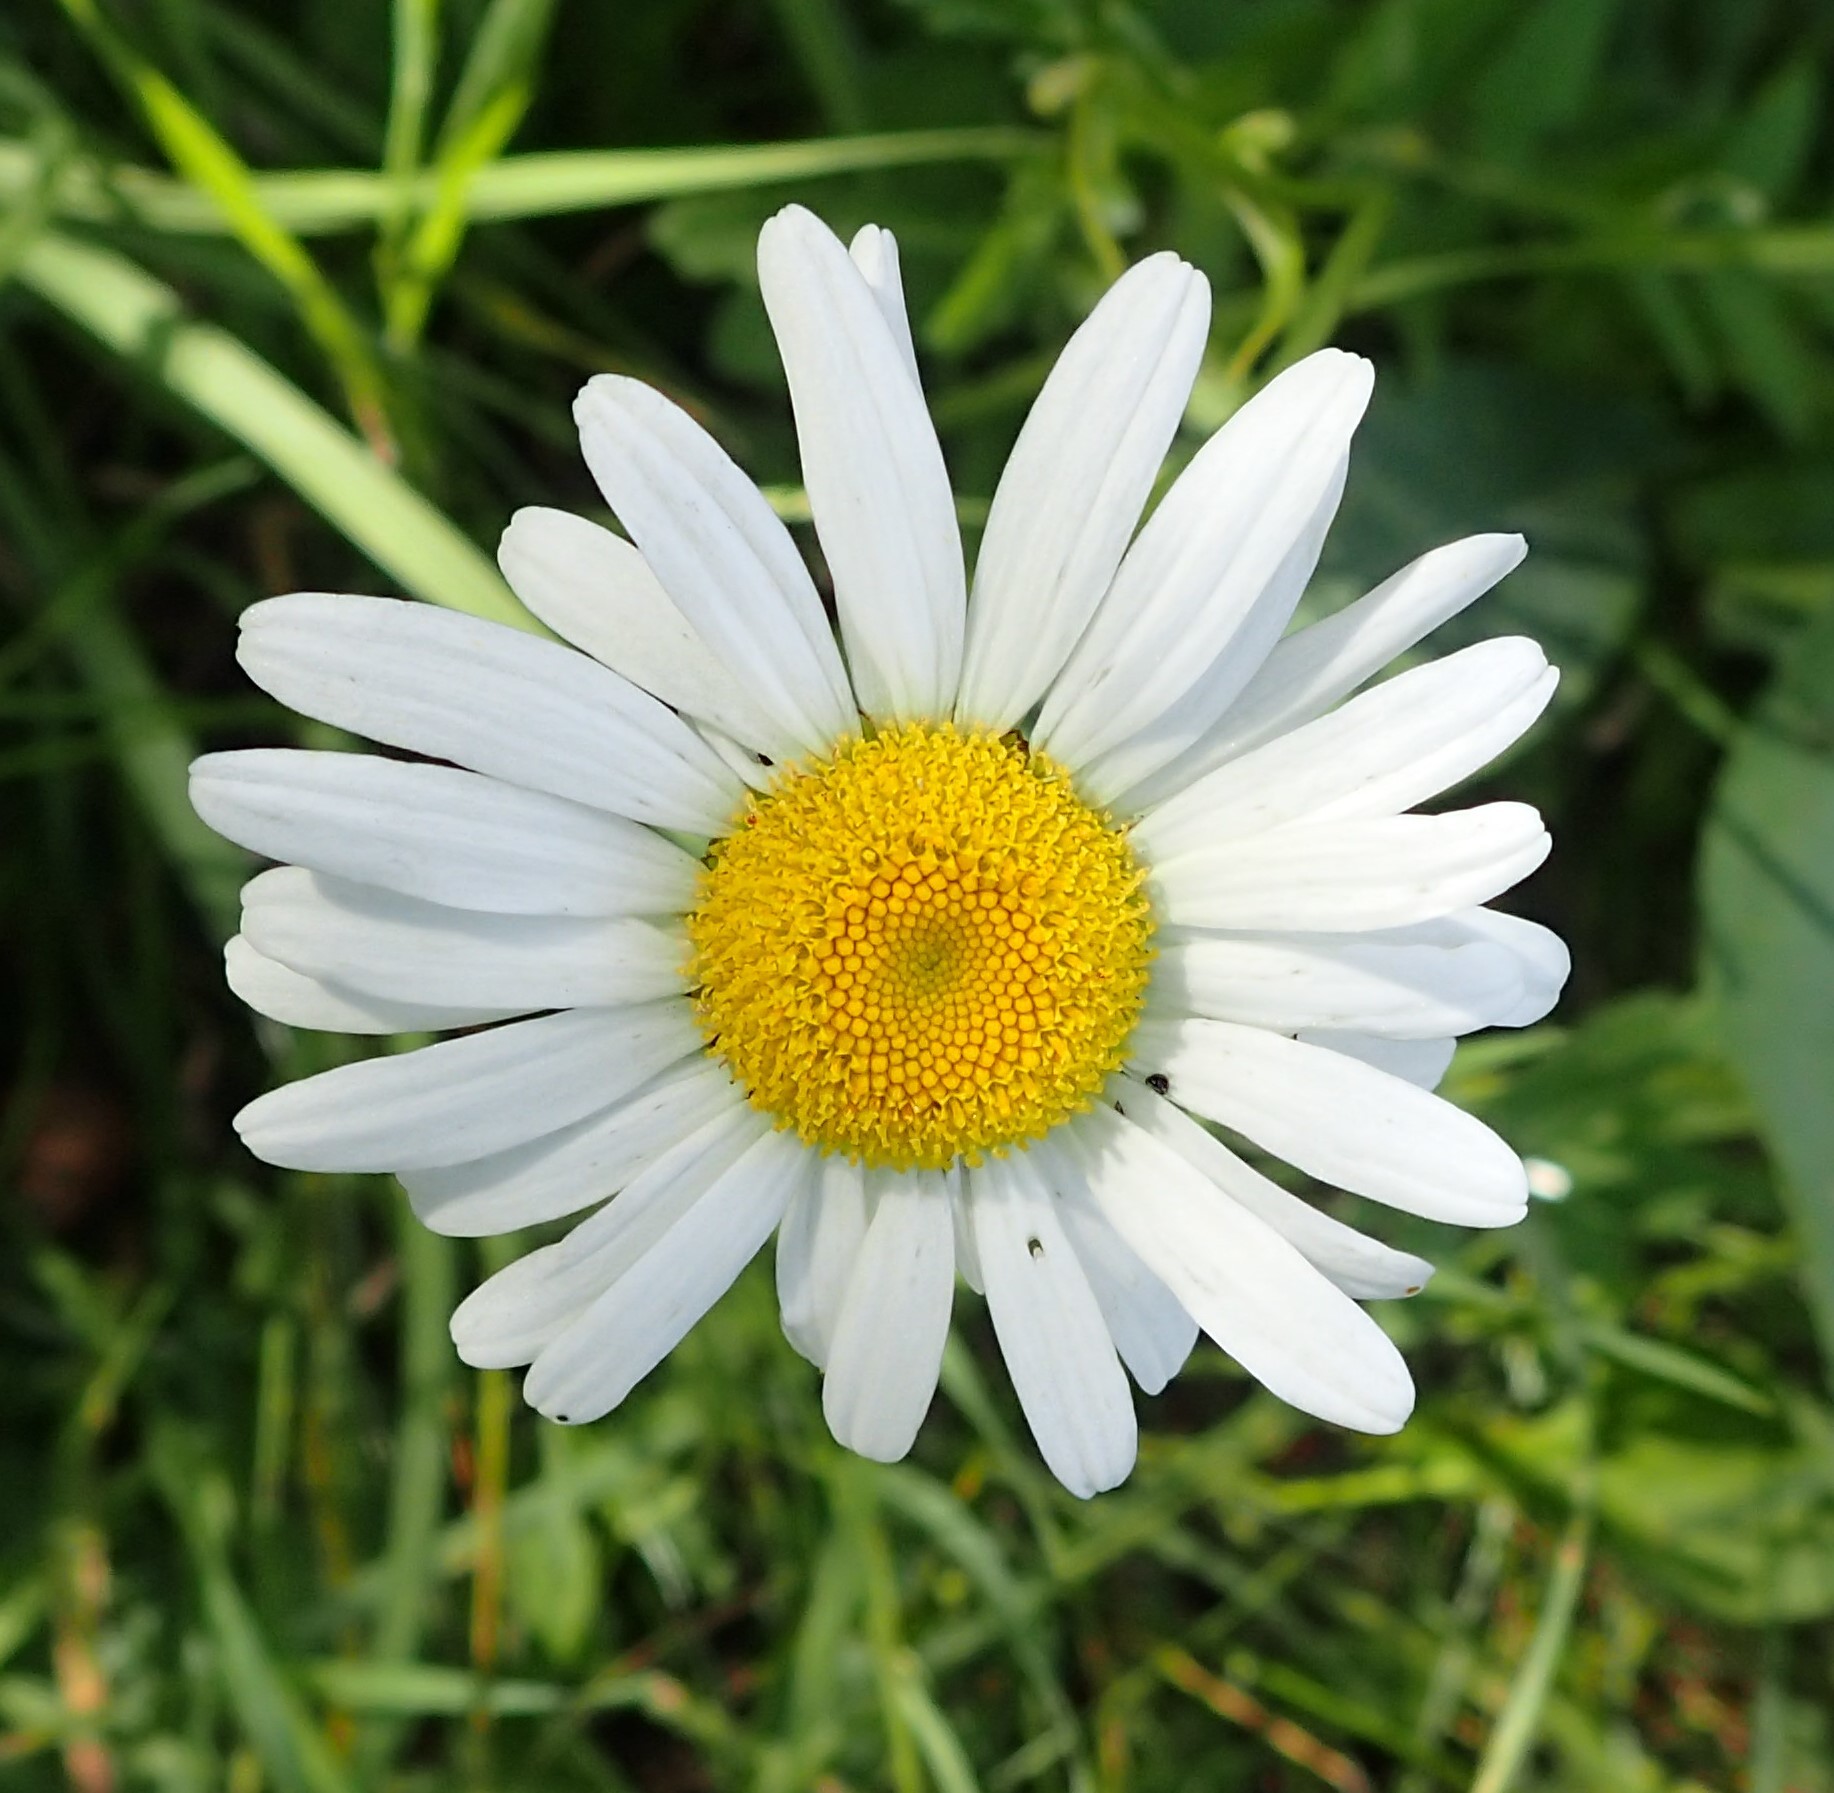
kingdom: Plantae
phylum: Tracheophyta
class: Magnoliopsida
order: Asterales
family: Asteraceae
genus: Leucanthemum
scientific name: Leucanthemum vulgare
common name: Oxeye daisy
